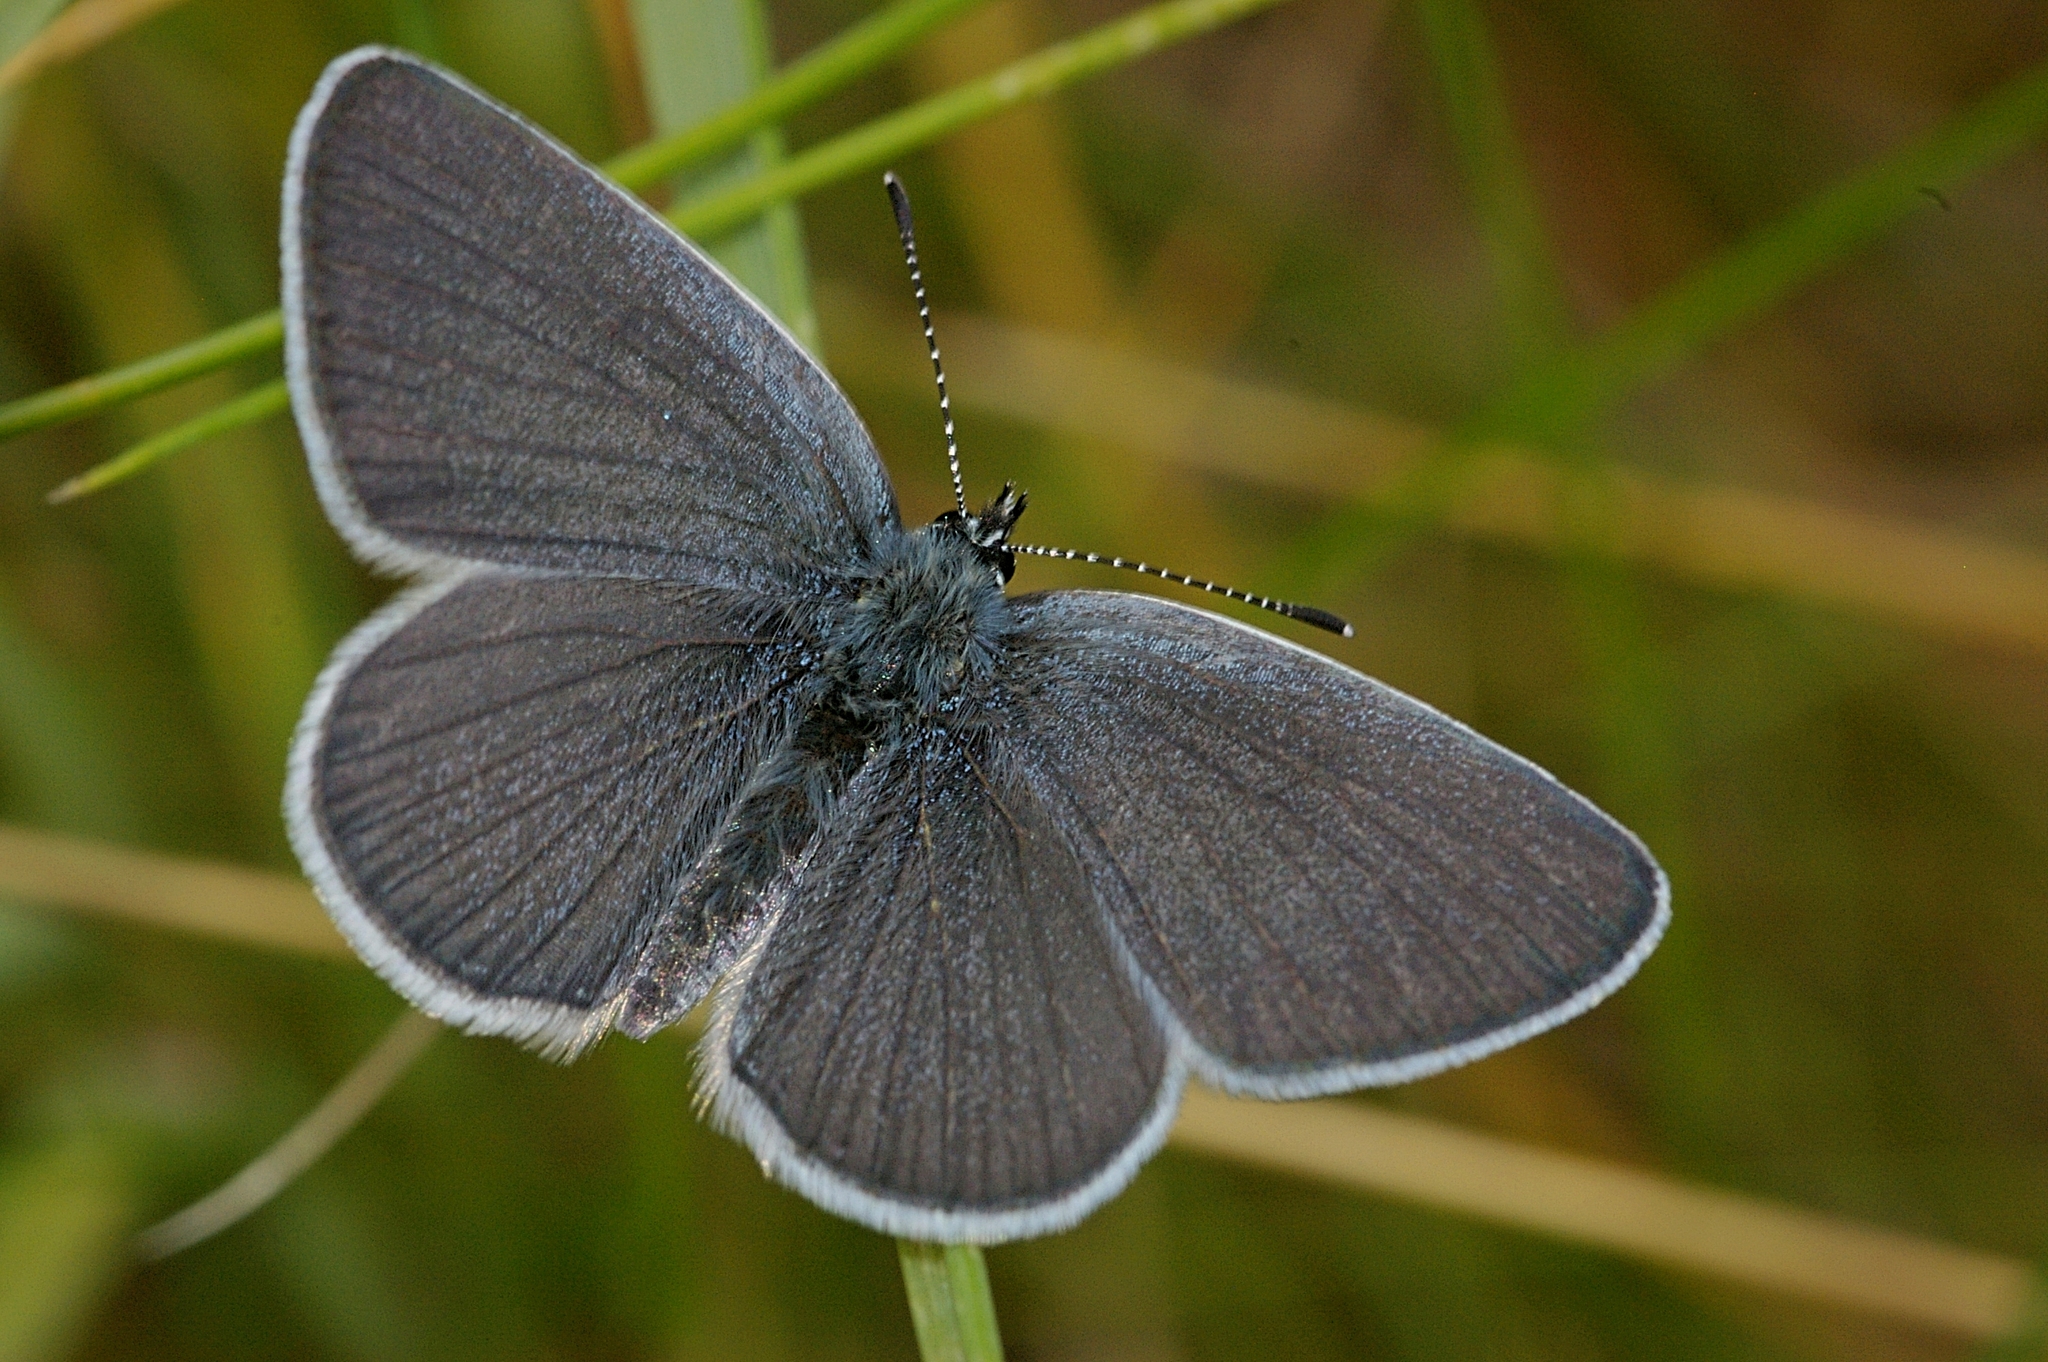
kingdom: Animalia
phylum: Arthropoda
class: Insecta
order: Lepidoptera
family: Lycaenidae
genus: Cupido
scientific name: Cupido minimus
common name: Small blue
